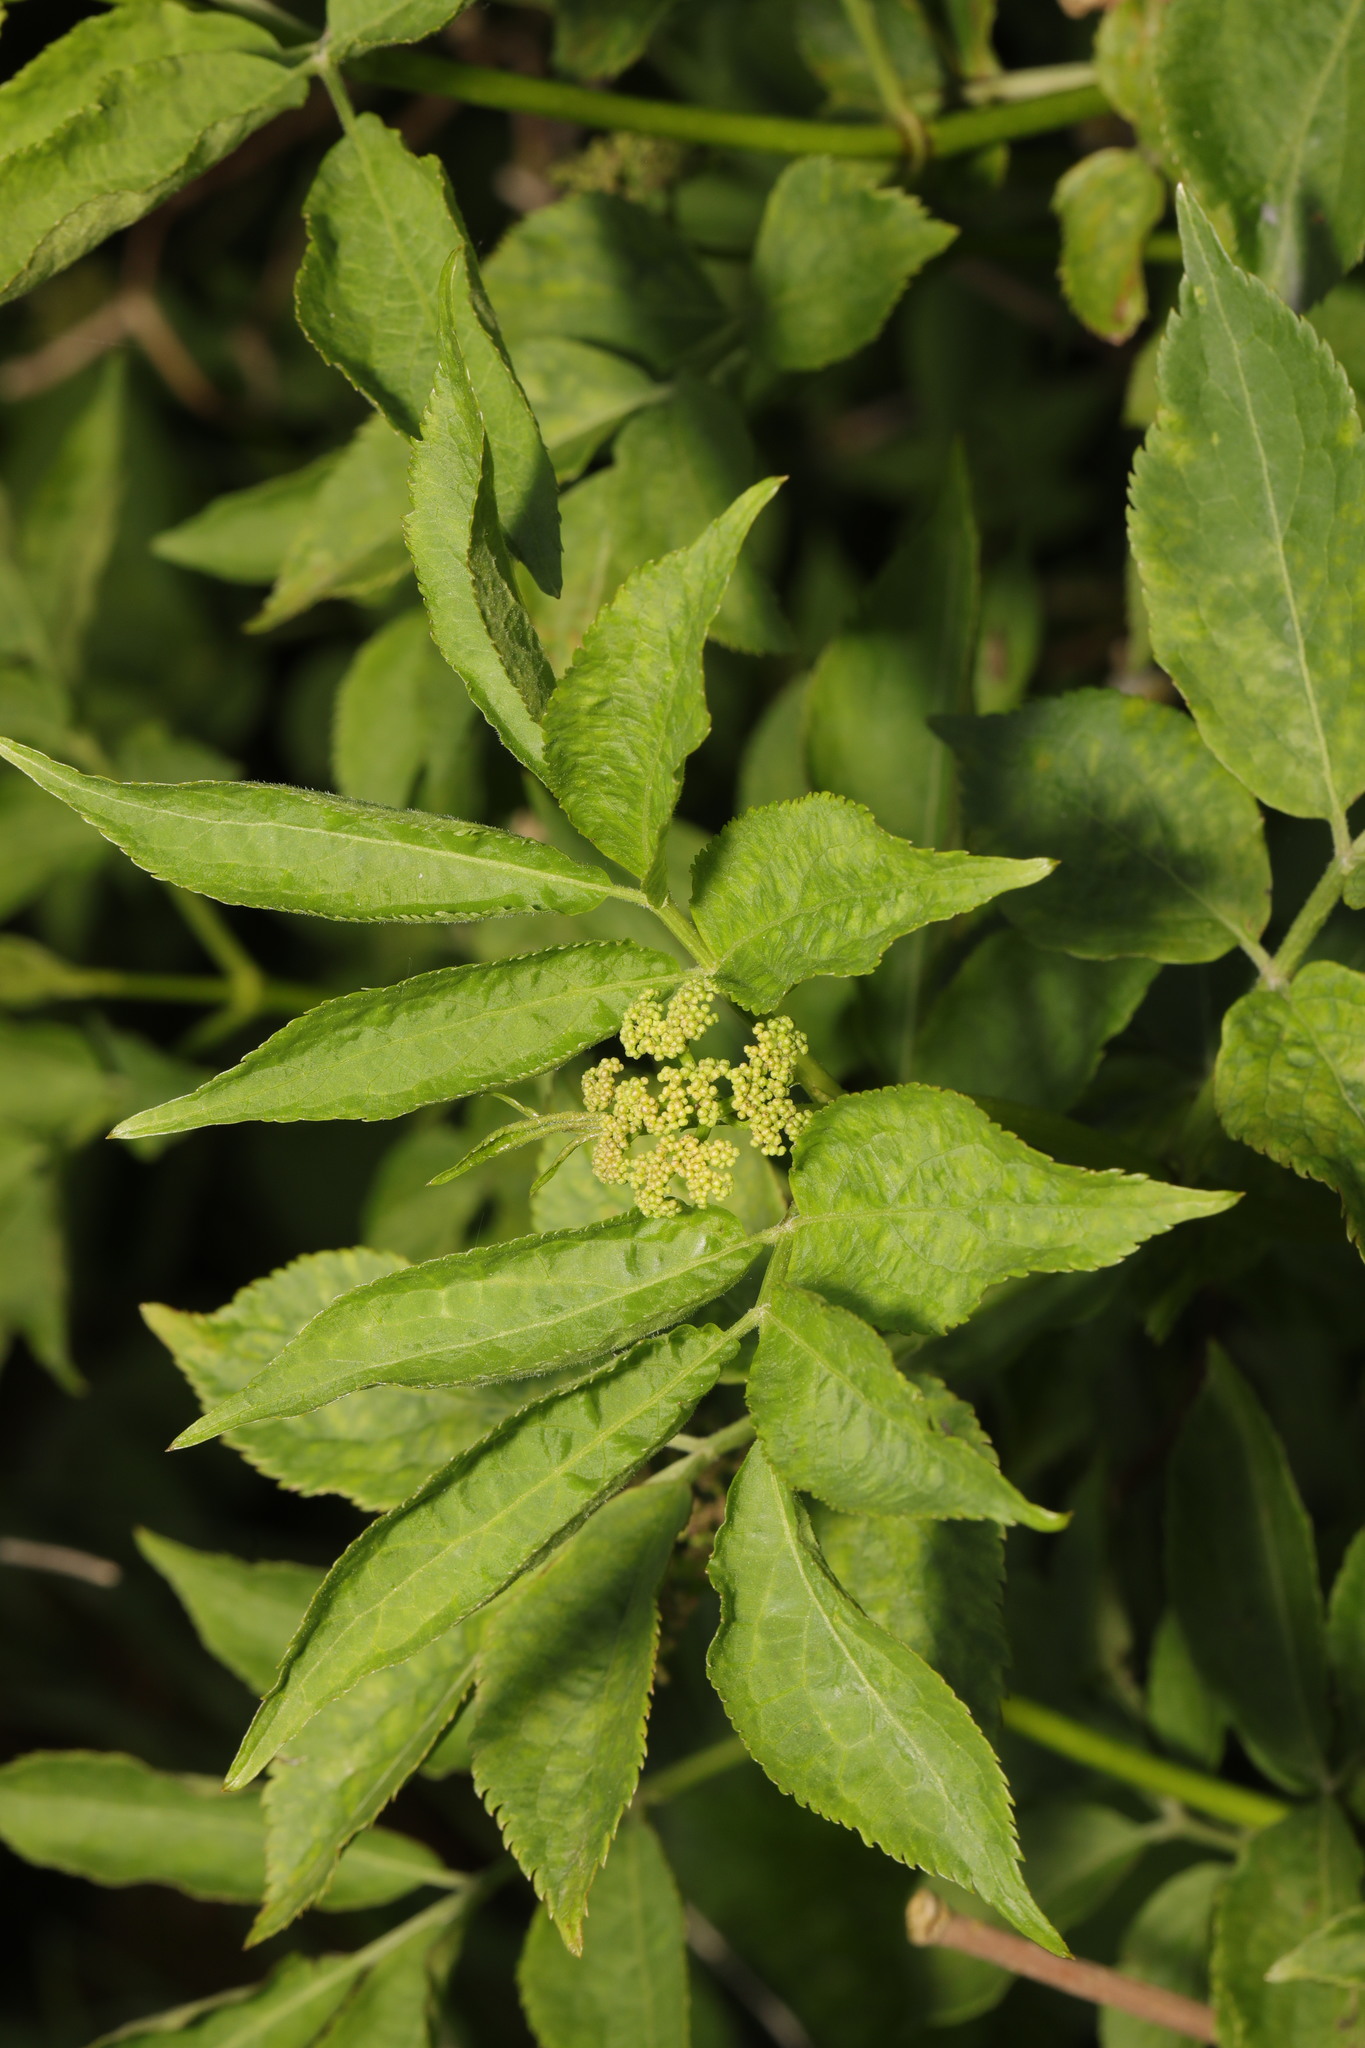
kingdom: Plantae
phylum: Tracheophyta
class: Magnoliopsida
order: Dipsacales
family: Viburnaceae
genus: Sambucus
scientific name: Sambucus nigra
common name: Elder
